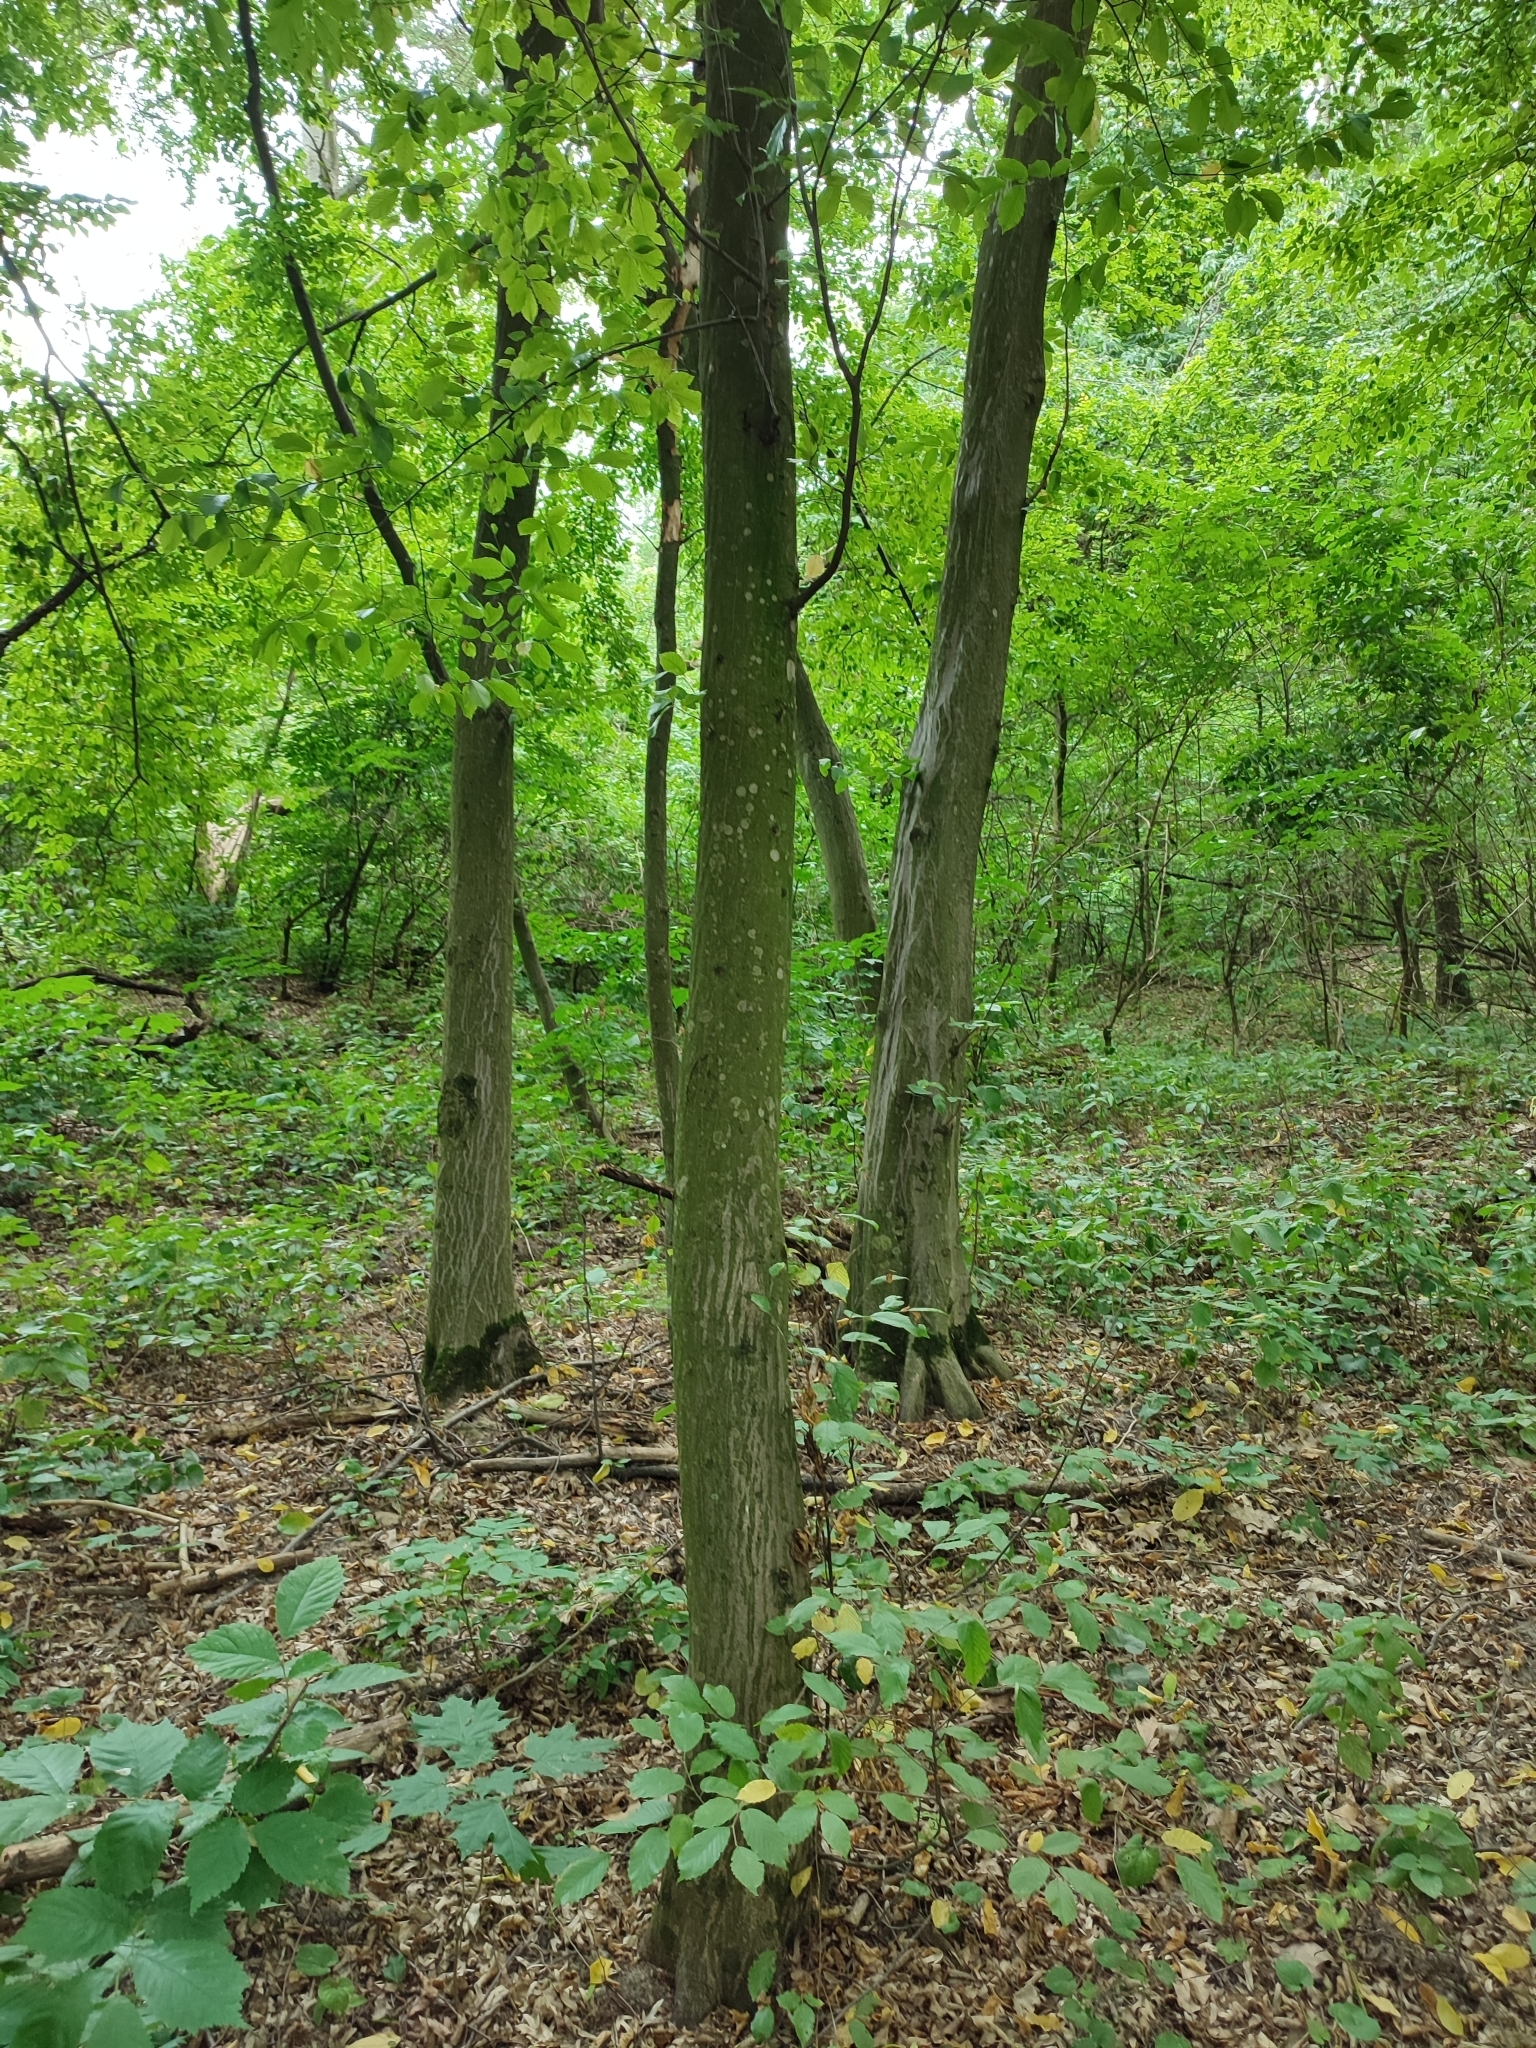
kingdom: Plantae
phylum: Tracheophyta
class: Magnoliopsida
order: Fagales
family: Betulaceae
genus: Carpinus
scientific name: Carpinus betulus
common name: Hornbeam
